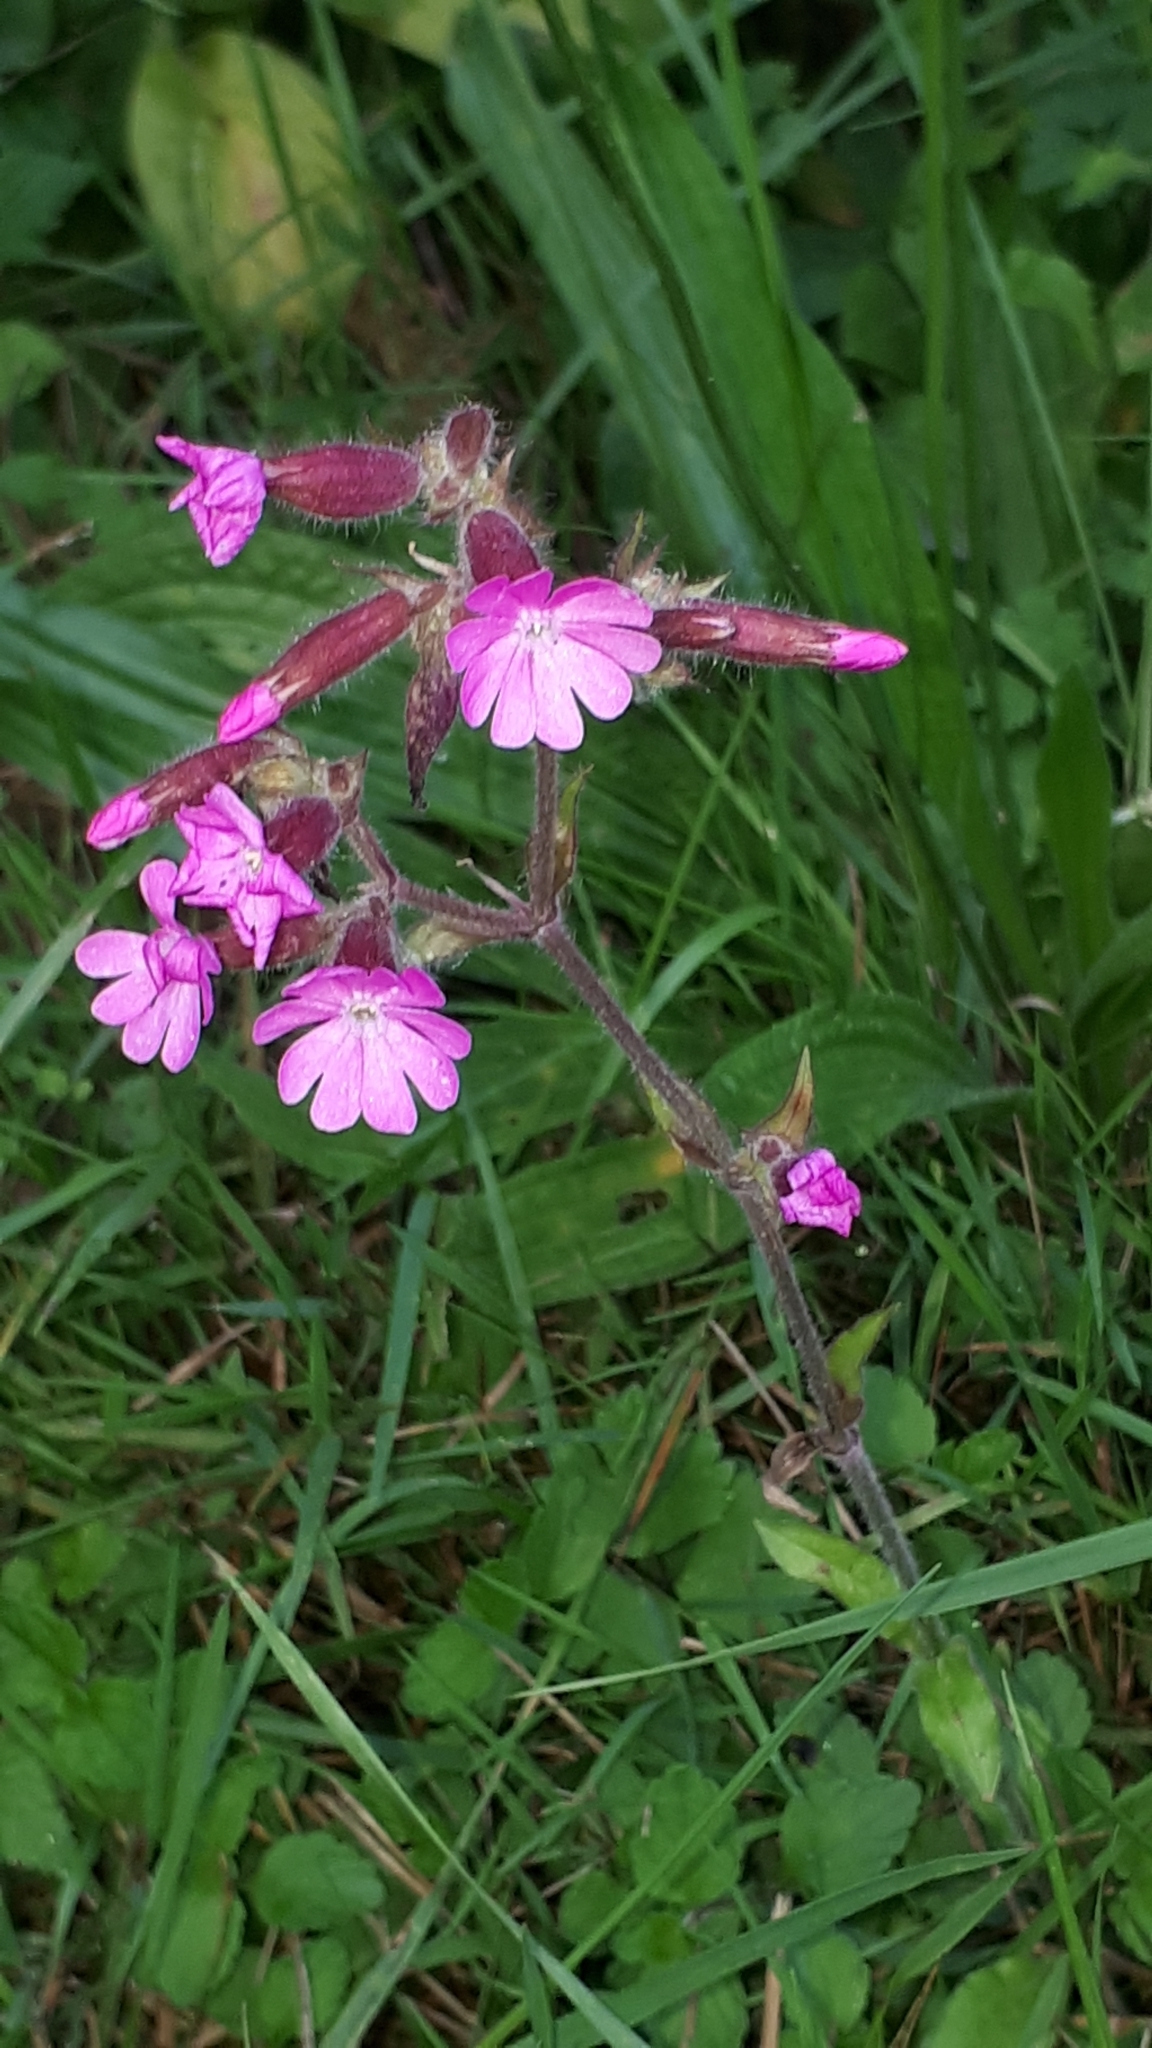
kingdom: Plantae
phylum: Tracheophyta
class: Magnoliopsida
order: Caryophyllales
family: Caryophyllaceae
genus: Silene
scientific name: Silene dioica
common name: Red campion
